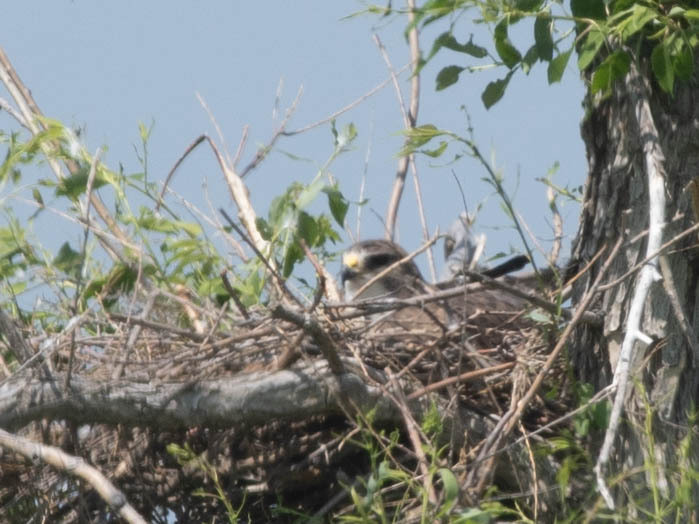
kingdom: Animalia
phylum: Chordata
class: Aves
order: Accipitriformes
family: Accipitridae
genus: Buteo
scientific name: Buteo swainsoni
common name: Swainson's hawk
